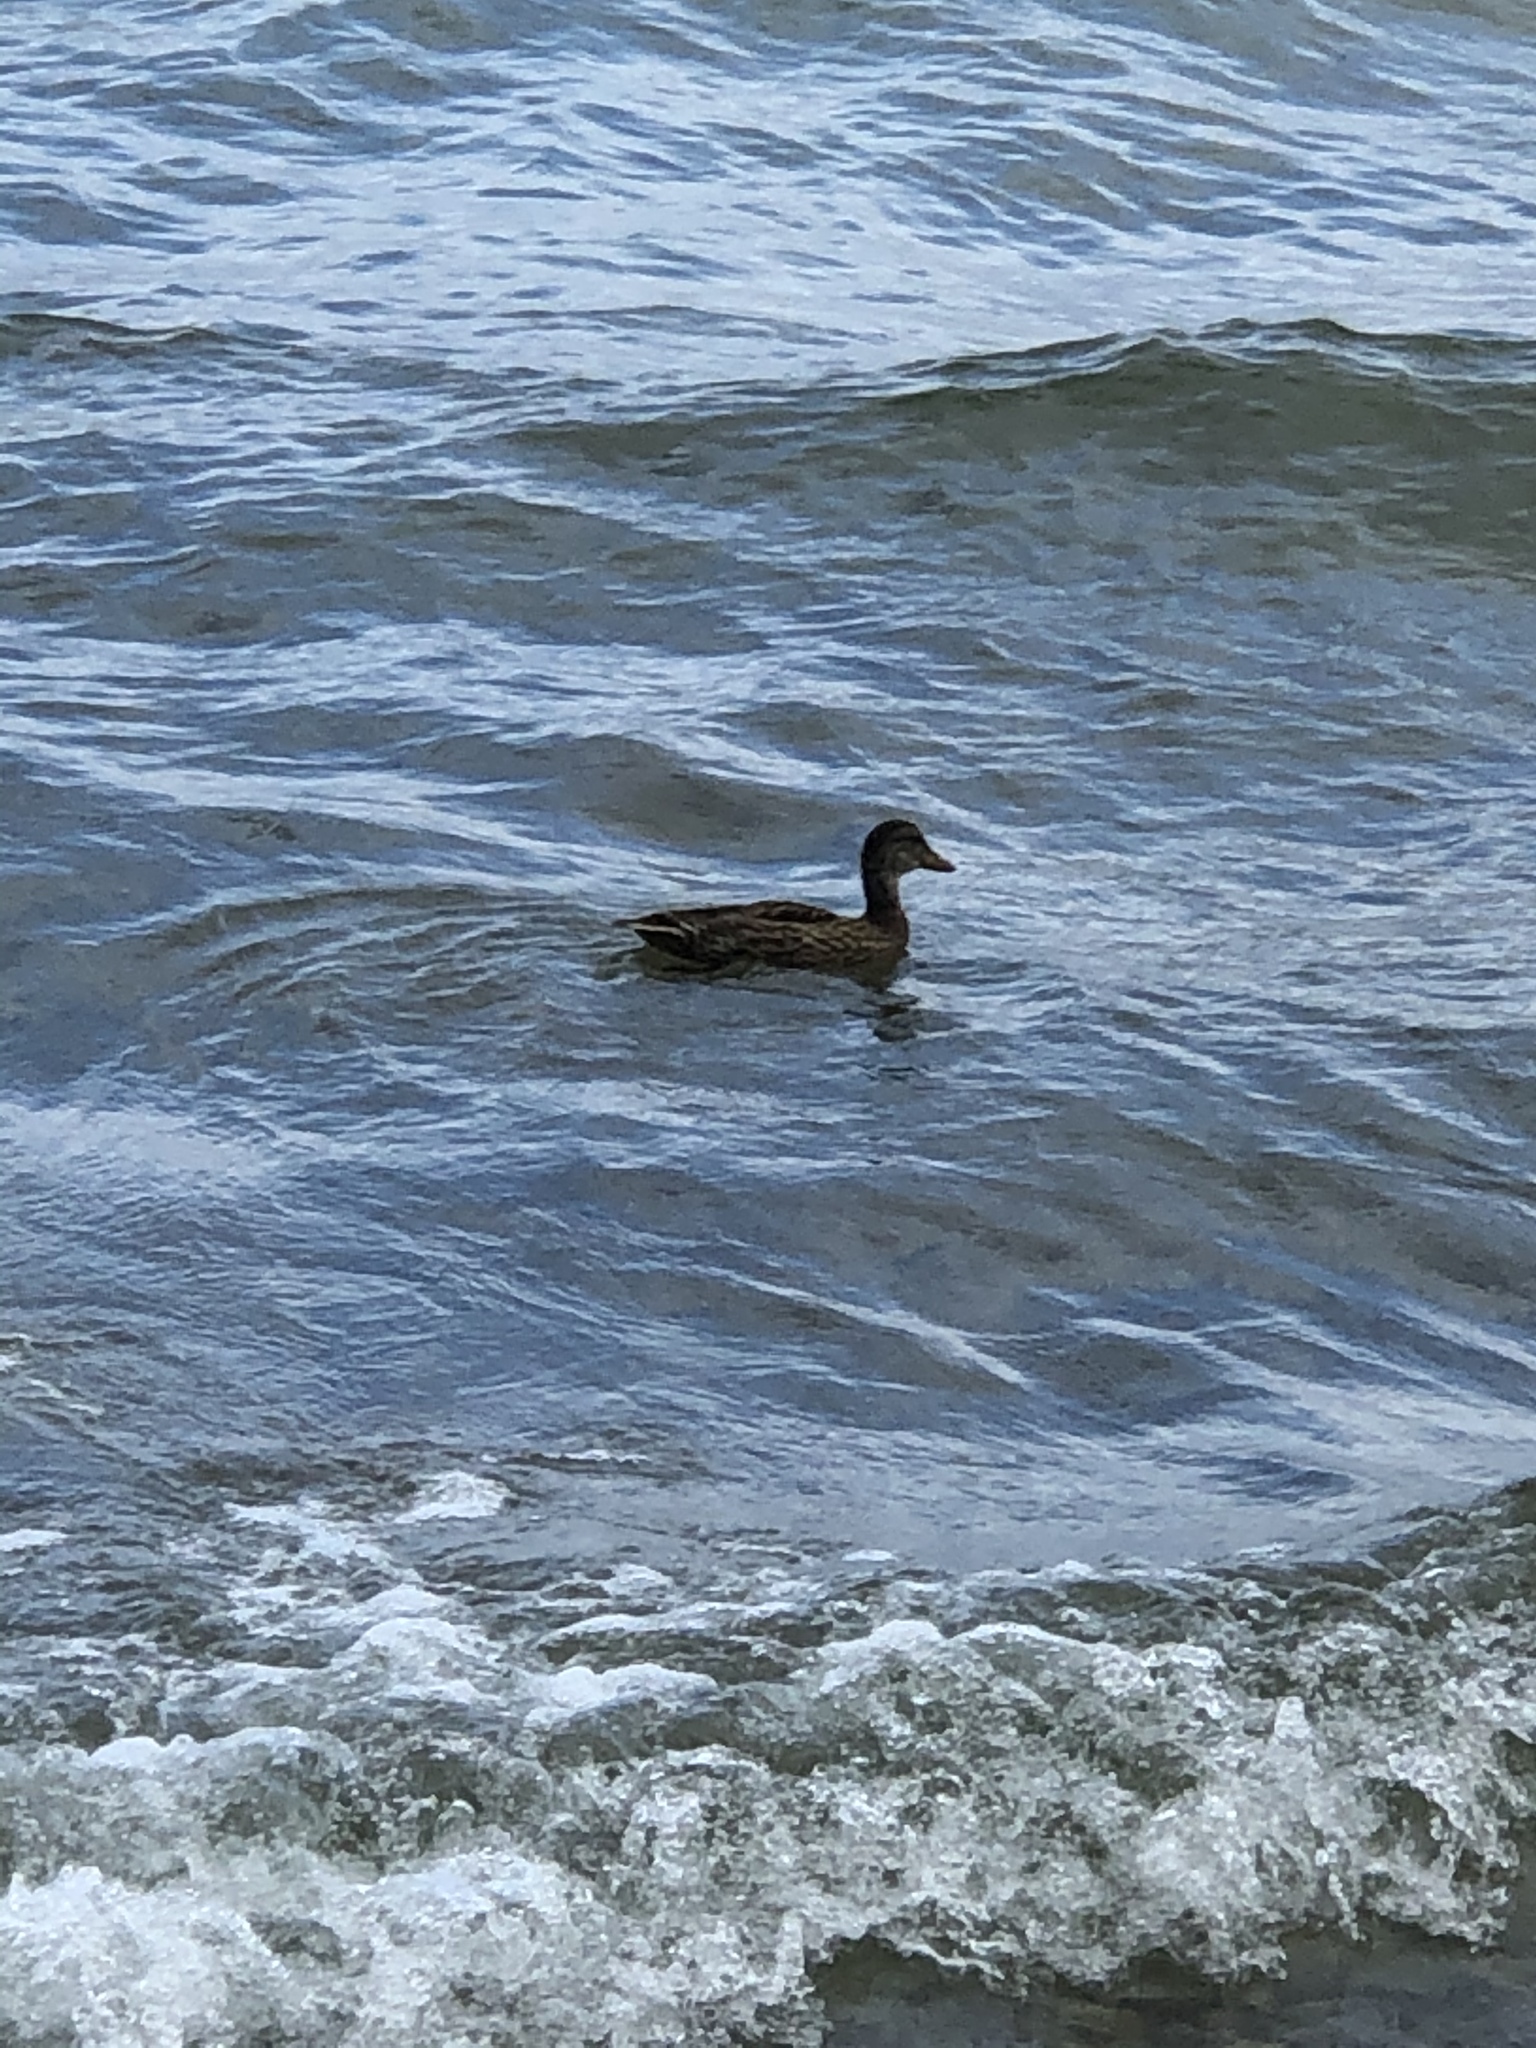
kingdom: Animalia
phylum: Chordata
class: Aves
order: Anseriformes
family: Anatidae
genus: Anas
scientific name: Anas platyrhynchos
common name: Mallard
